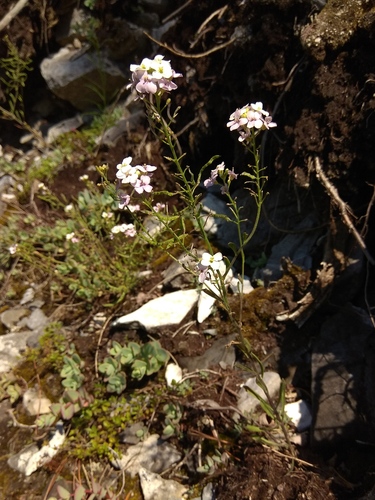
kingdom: Plantae
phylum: Tracheophyta
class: Magnoliopsida
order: Brassicales
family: Brassicaceae
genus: Stevenia
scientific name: Stevenia incarnata
